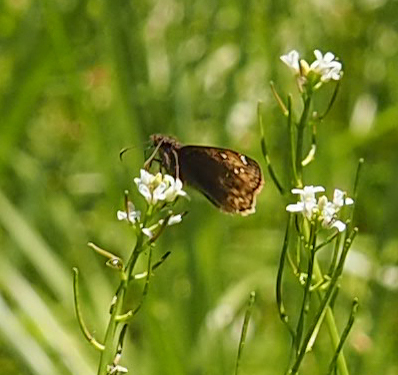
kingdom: Animalia
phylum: Arthropoda
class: Insecta
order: Lepidoptera
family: Hesperiidae
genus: Erynnis
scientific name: Erynnis juvenalis
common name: Juvenal's duskywing
